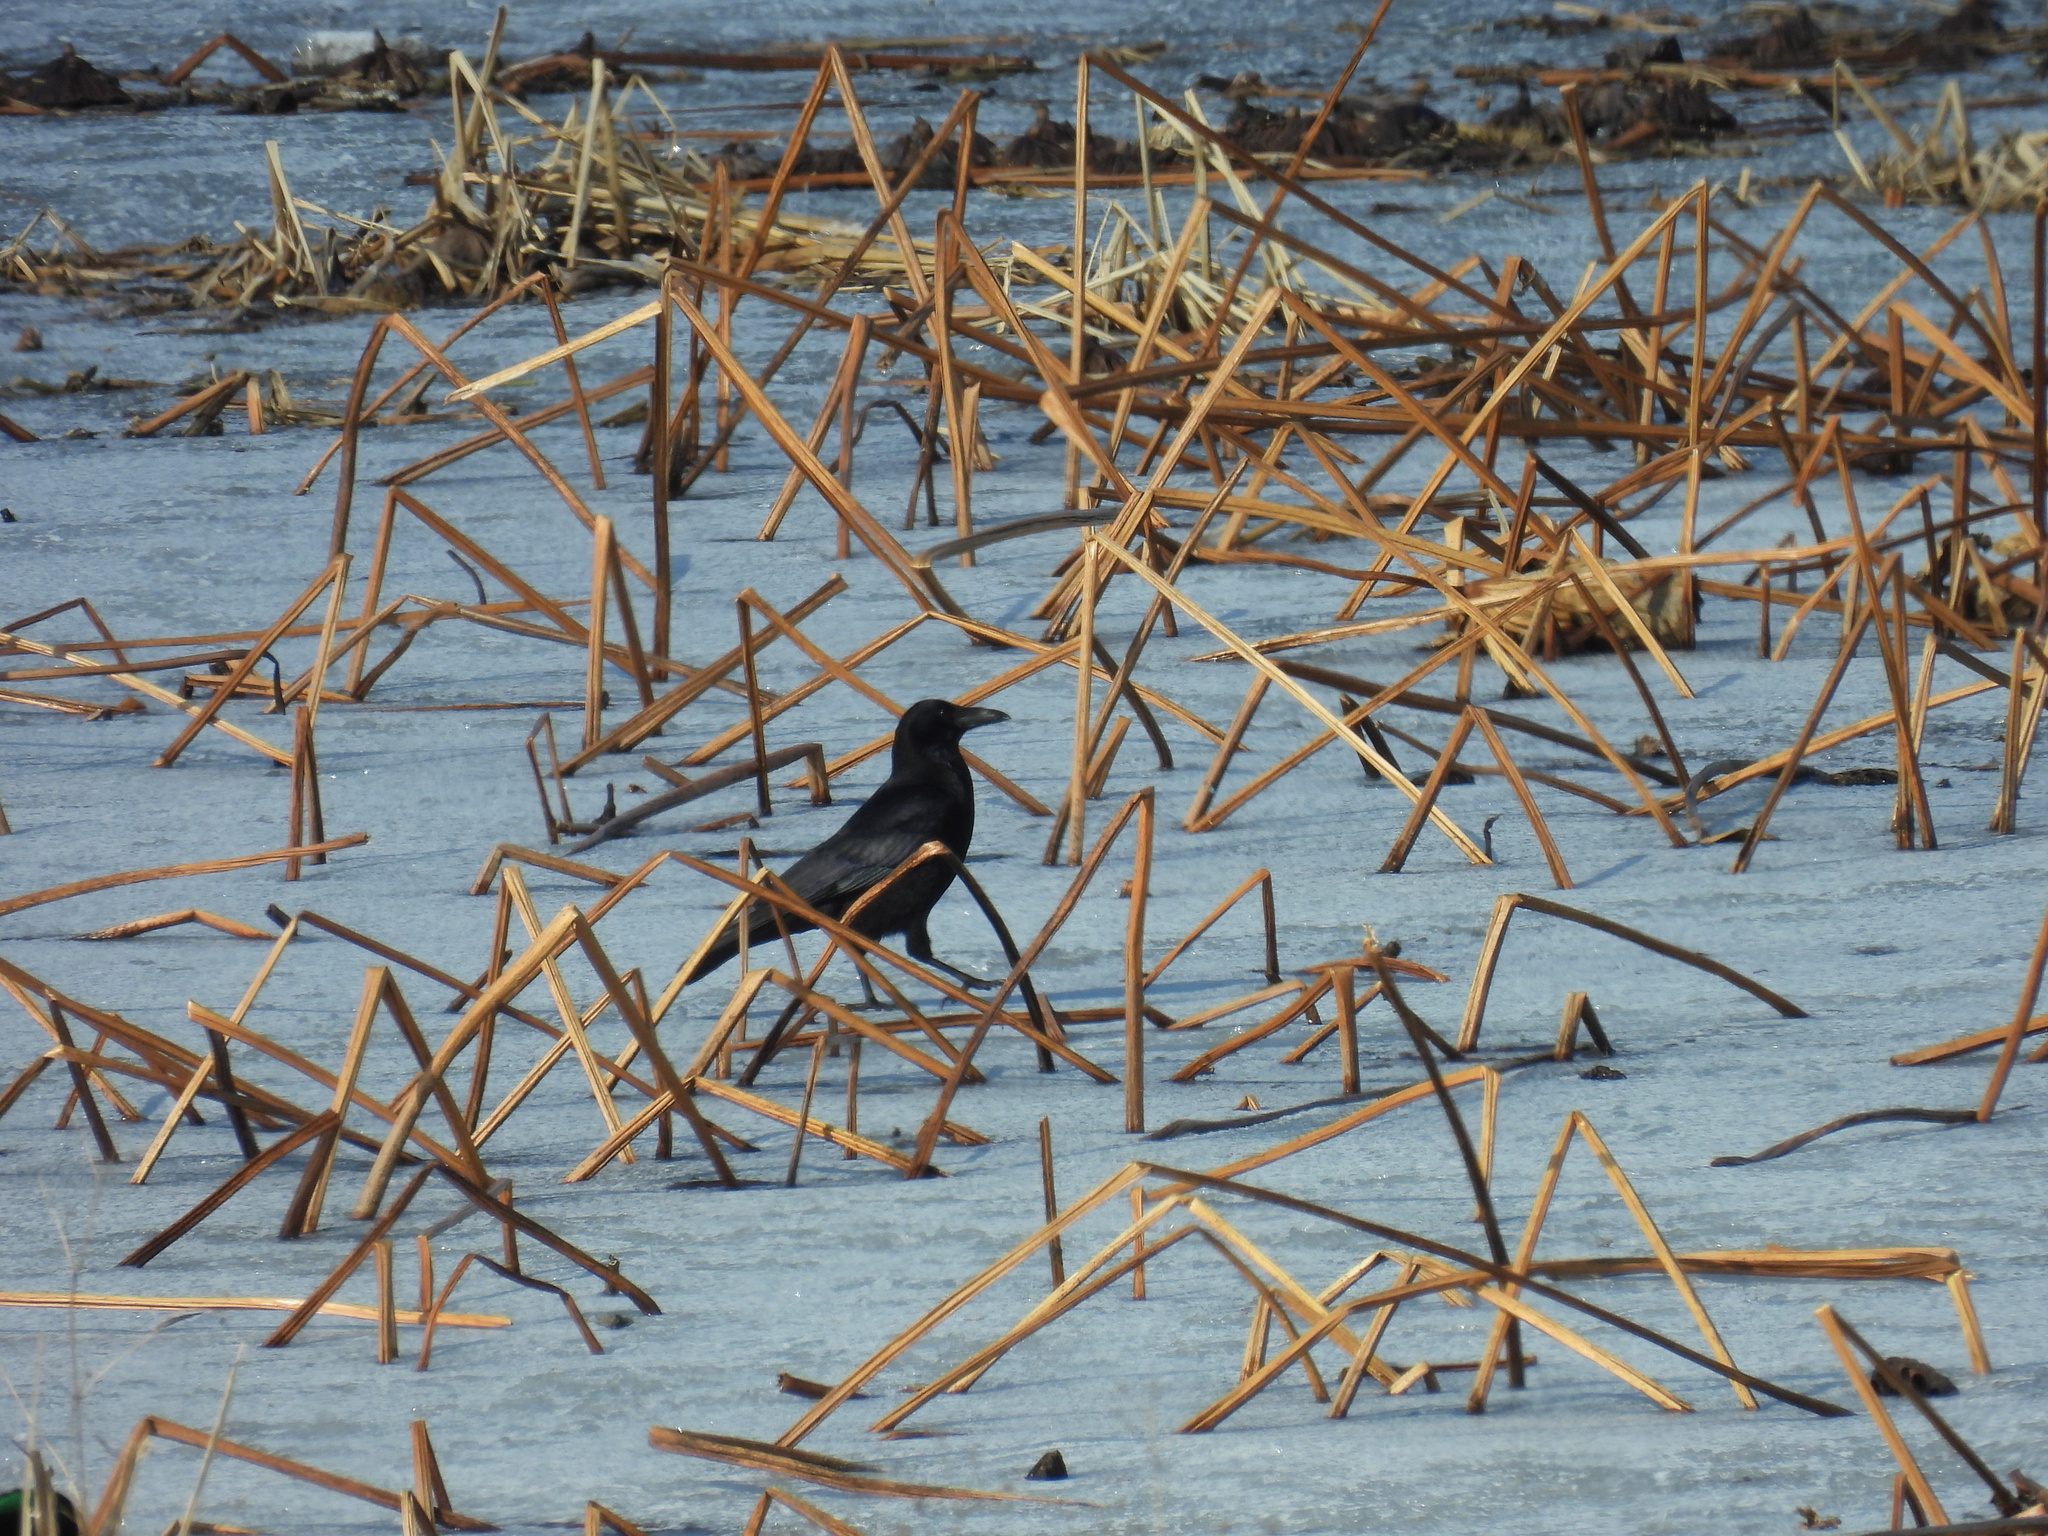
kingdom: Animalia
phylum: Chordata
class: Aves
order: Passeriformes
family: Corvidae
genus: Corvus
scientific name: Corvus corone
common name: Carrion crow
